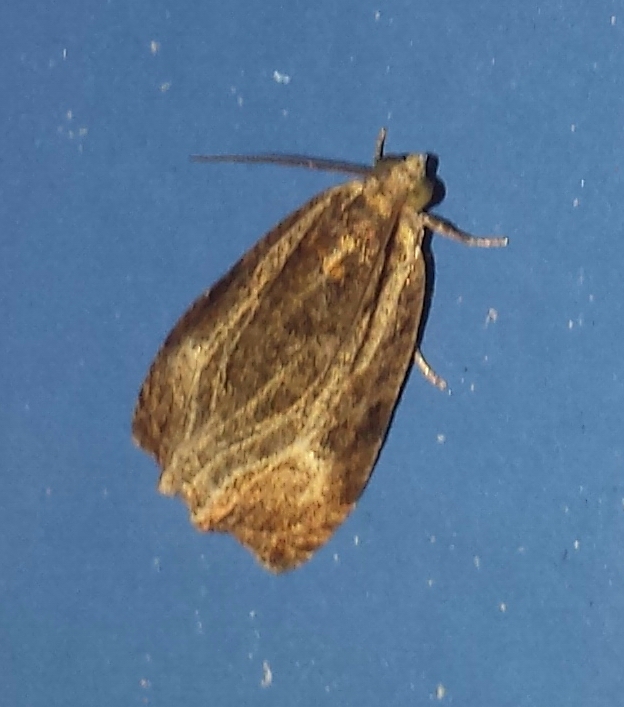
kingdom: Animalia
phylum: Arthropoda
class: Insecta
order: Lepidoptera
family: Tortricidae
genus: Olethreutes
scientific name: Olethreutes quadrifidum
